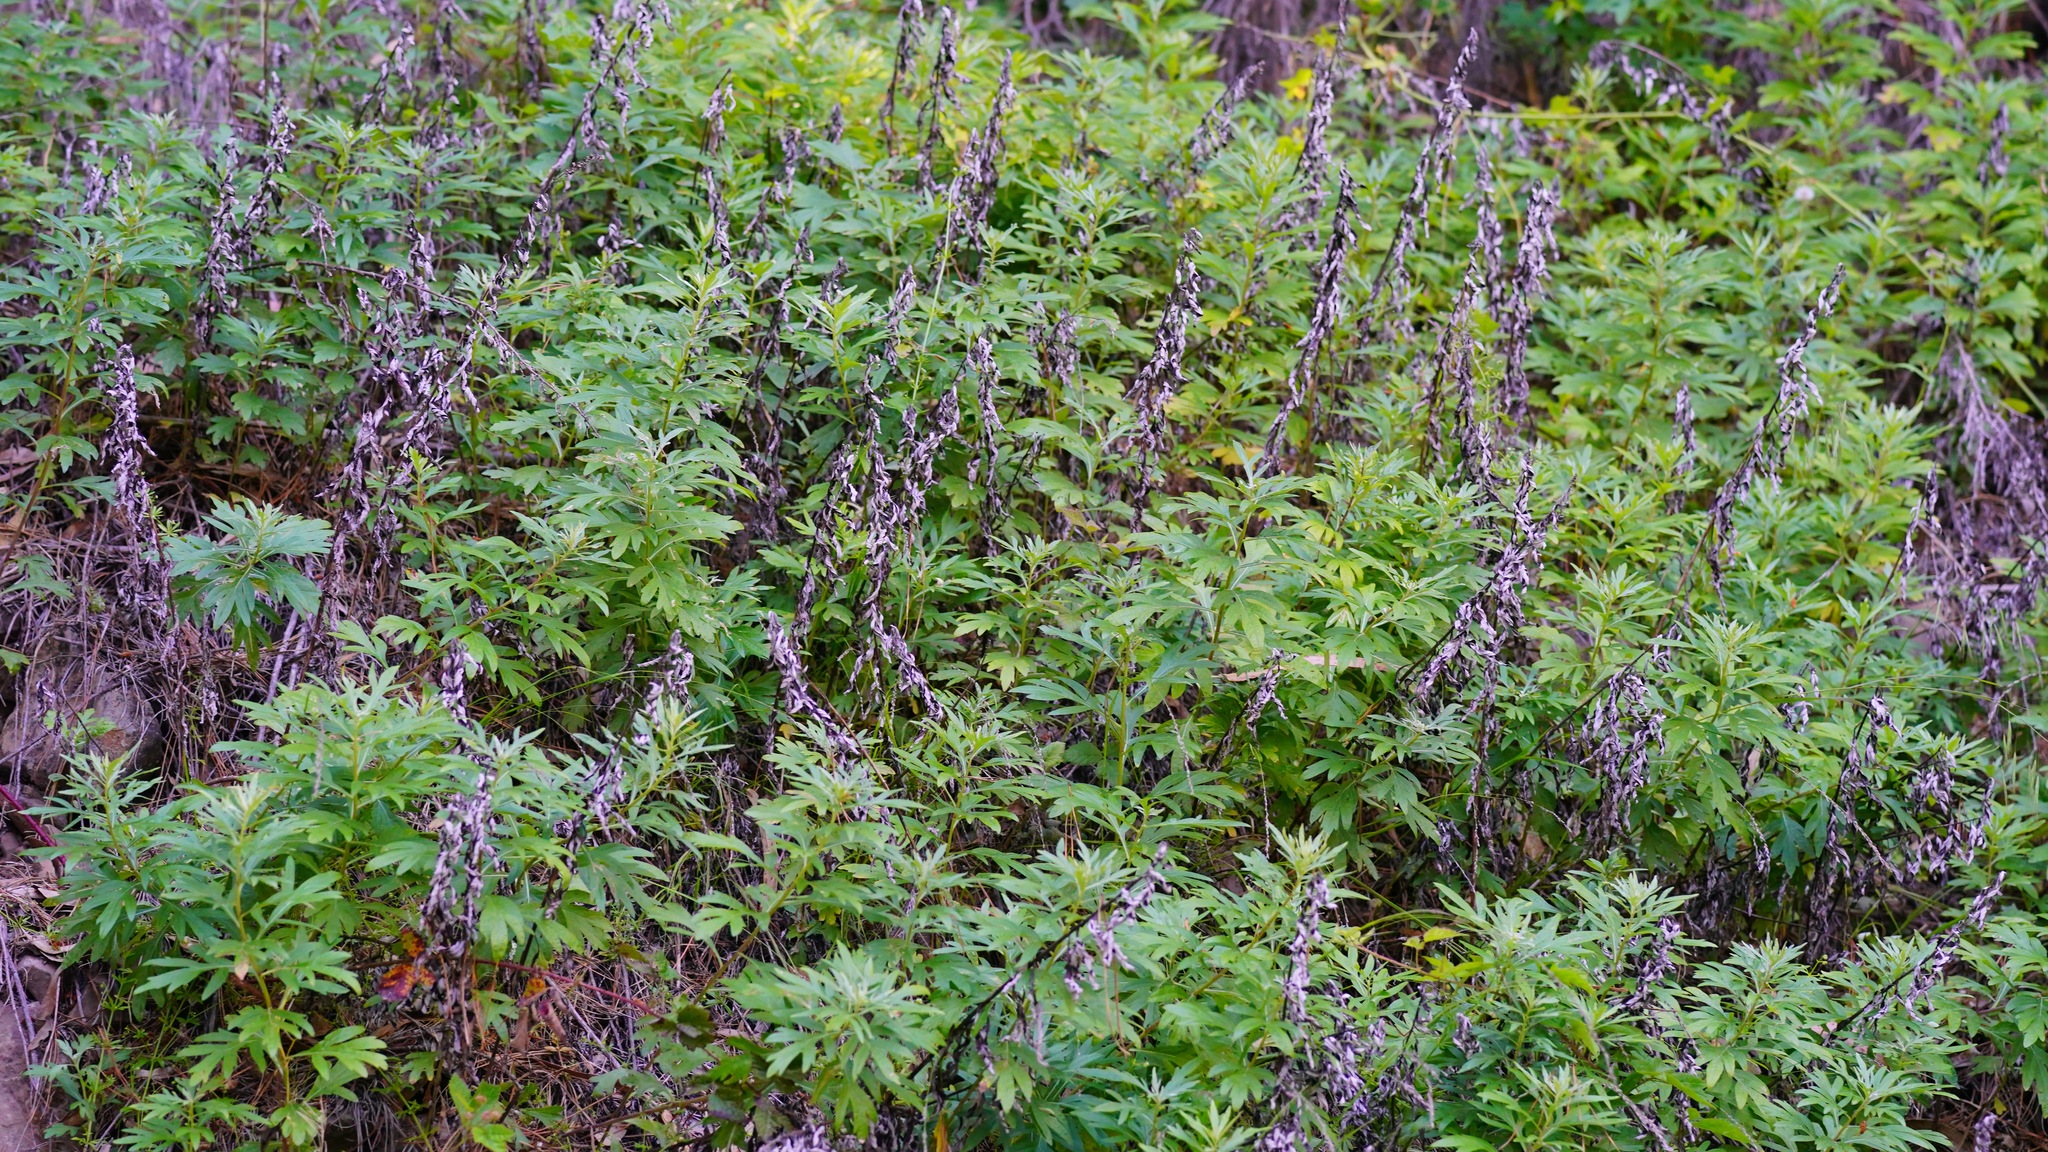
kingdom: Plantae
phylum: Tracheophyta
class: Magnoliopsida
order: Asterales
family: Asteraceae
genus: Artemisia
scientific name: Artemisia douglasiana
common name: Northwest mugwort
